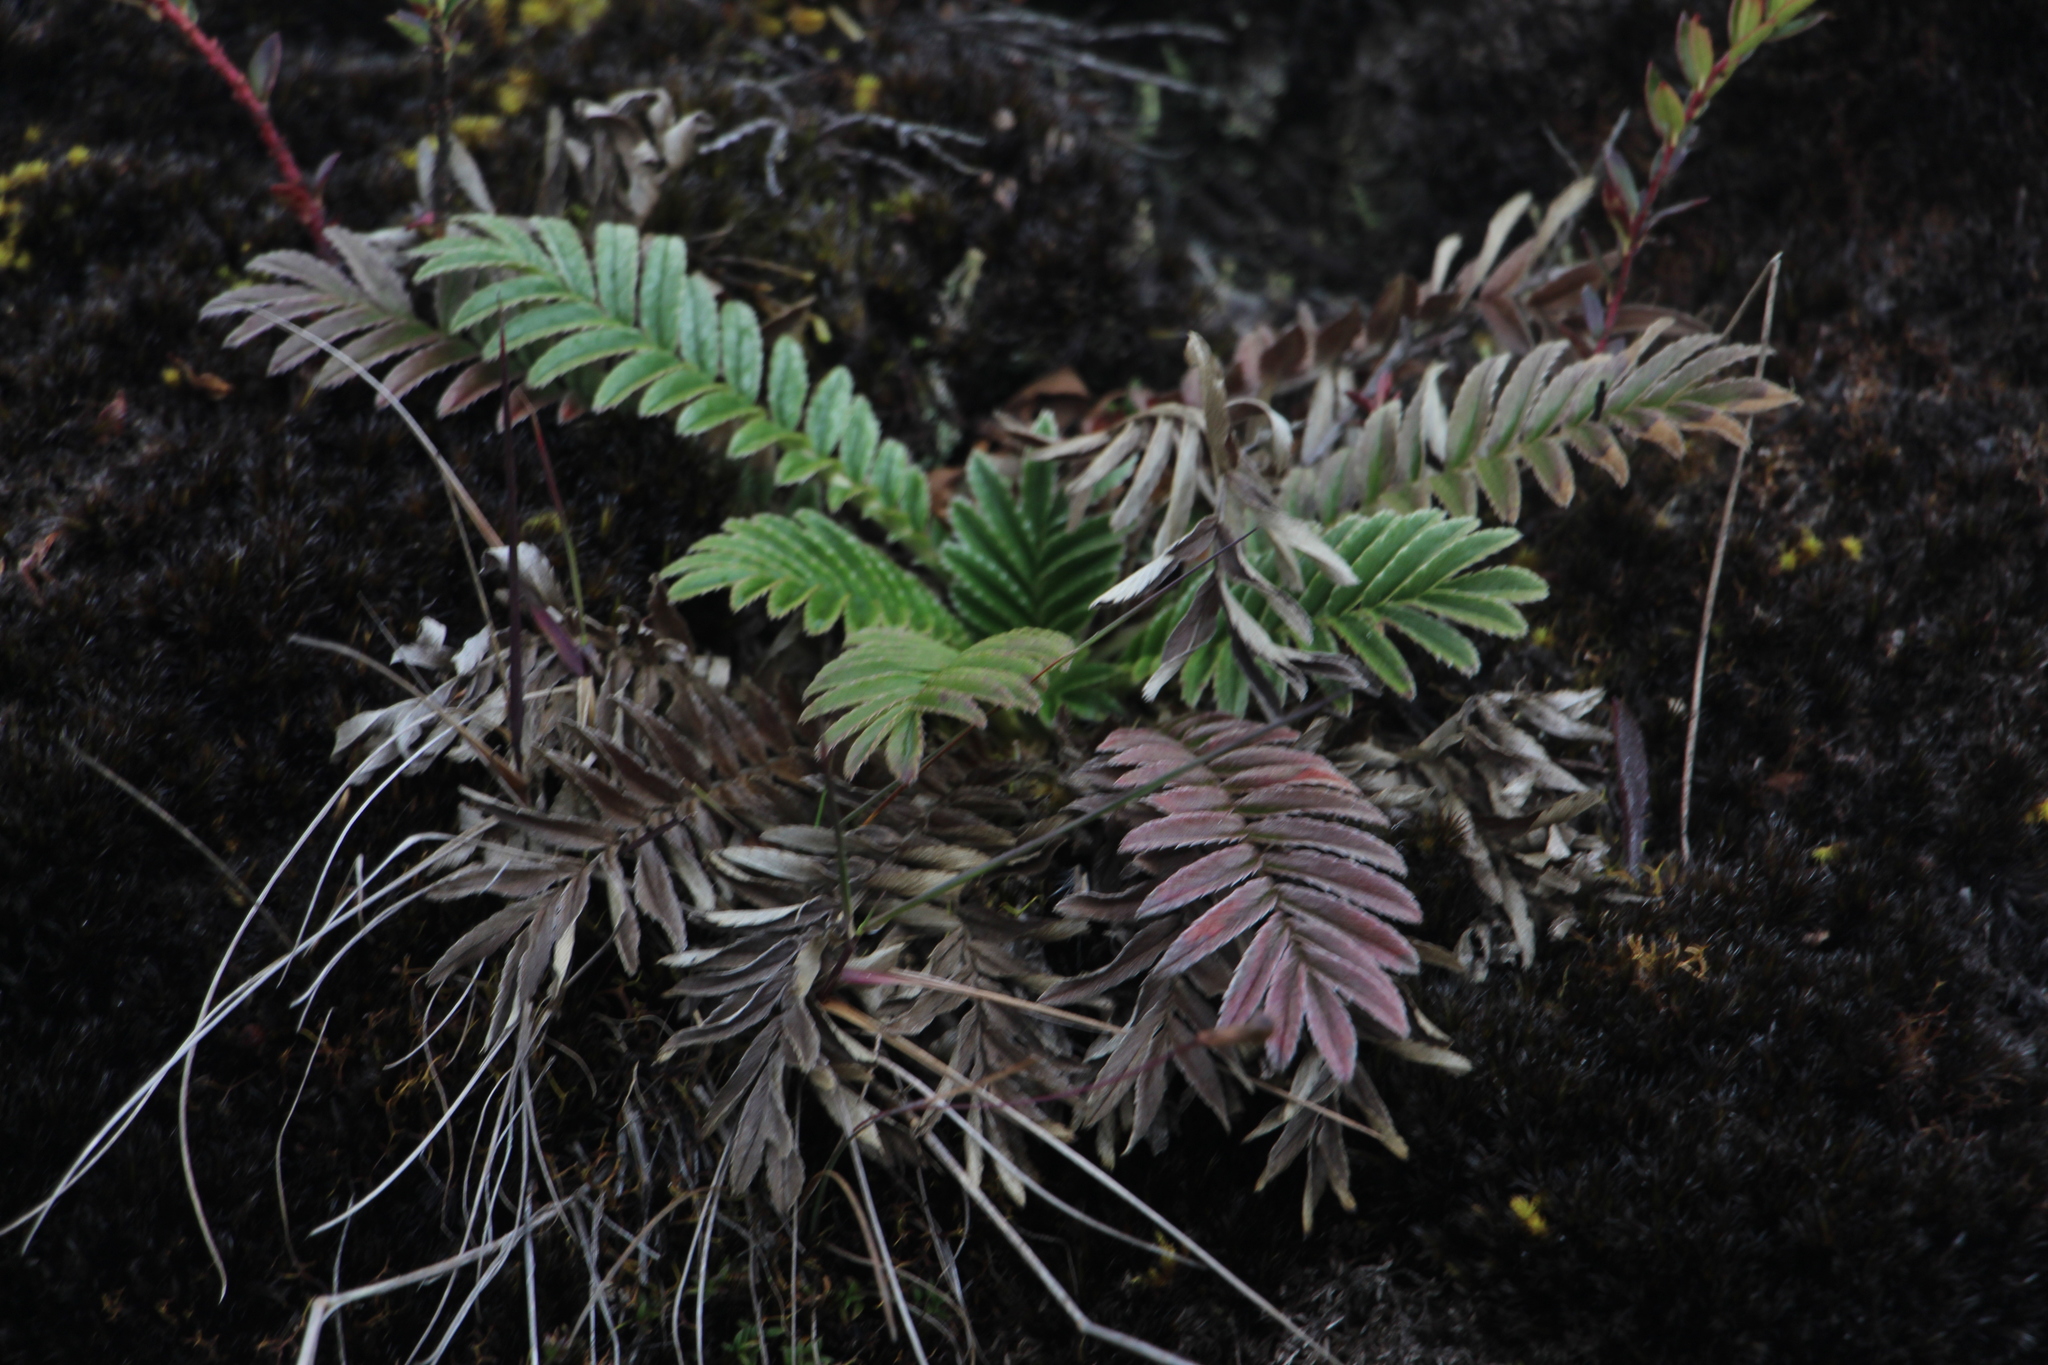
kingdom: Plantae
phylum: Tracheophyta
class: Magnoliopsida
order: Rosales
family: Rosaceae
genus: Acaena
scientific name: Acaena cylindristachya
